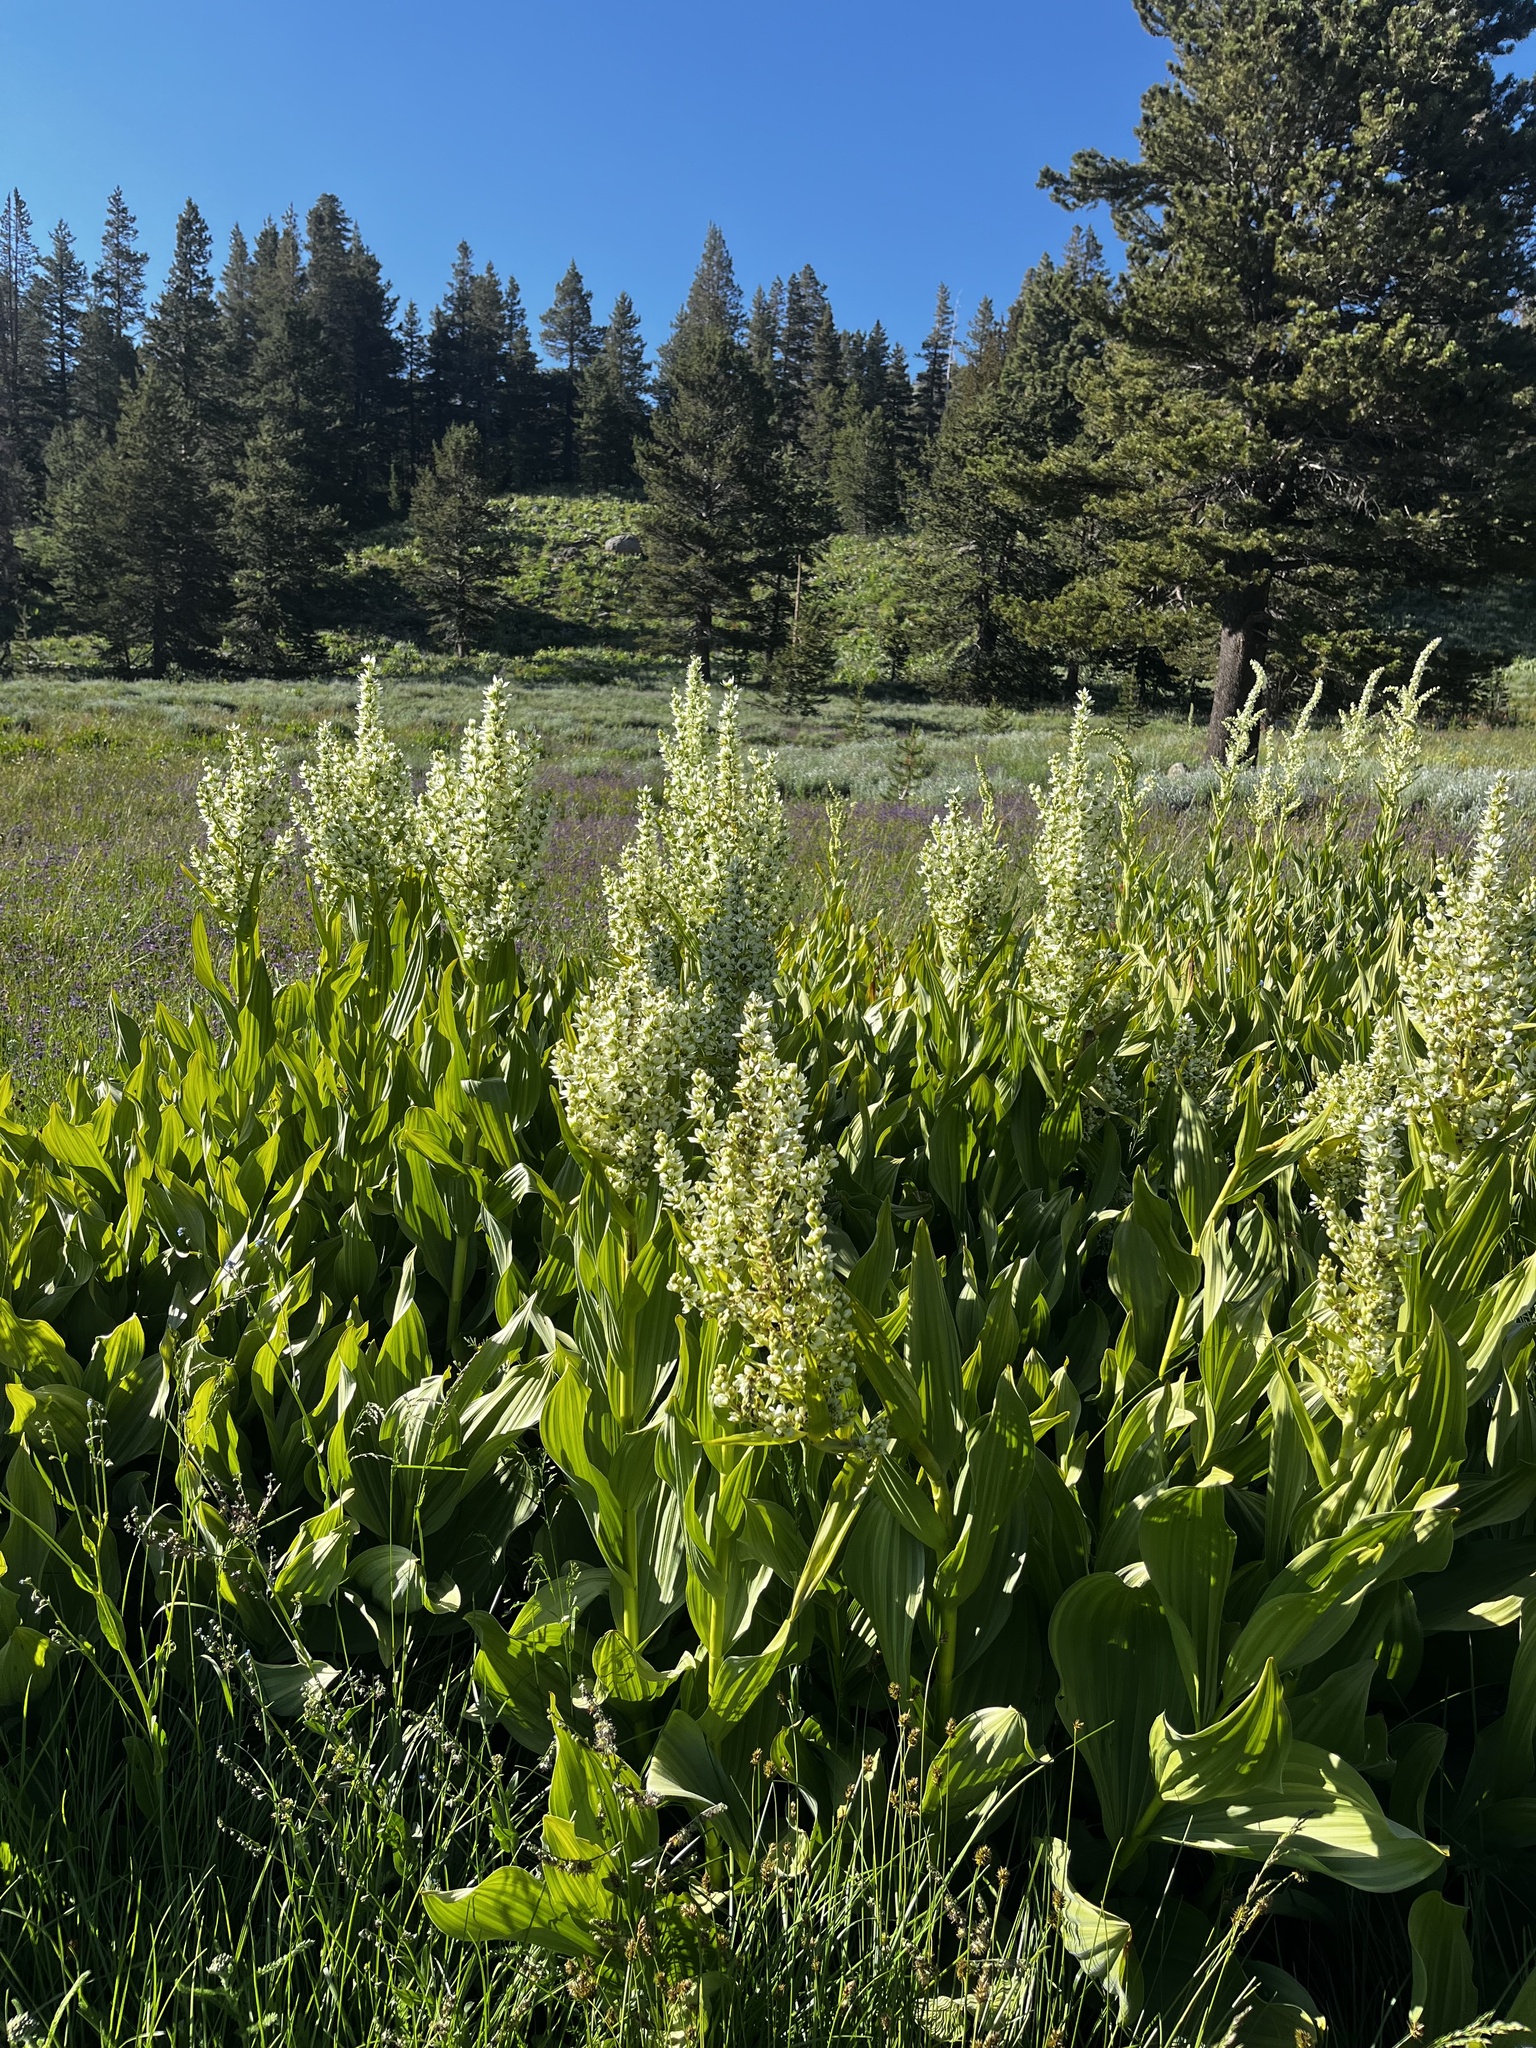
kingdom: Plantae
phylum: Tracheophyta
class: Liliopsida
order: Liliales
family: Melanthiaceae
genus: Veratrum
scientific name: Veratrum californicum
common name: California veratrum
